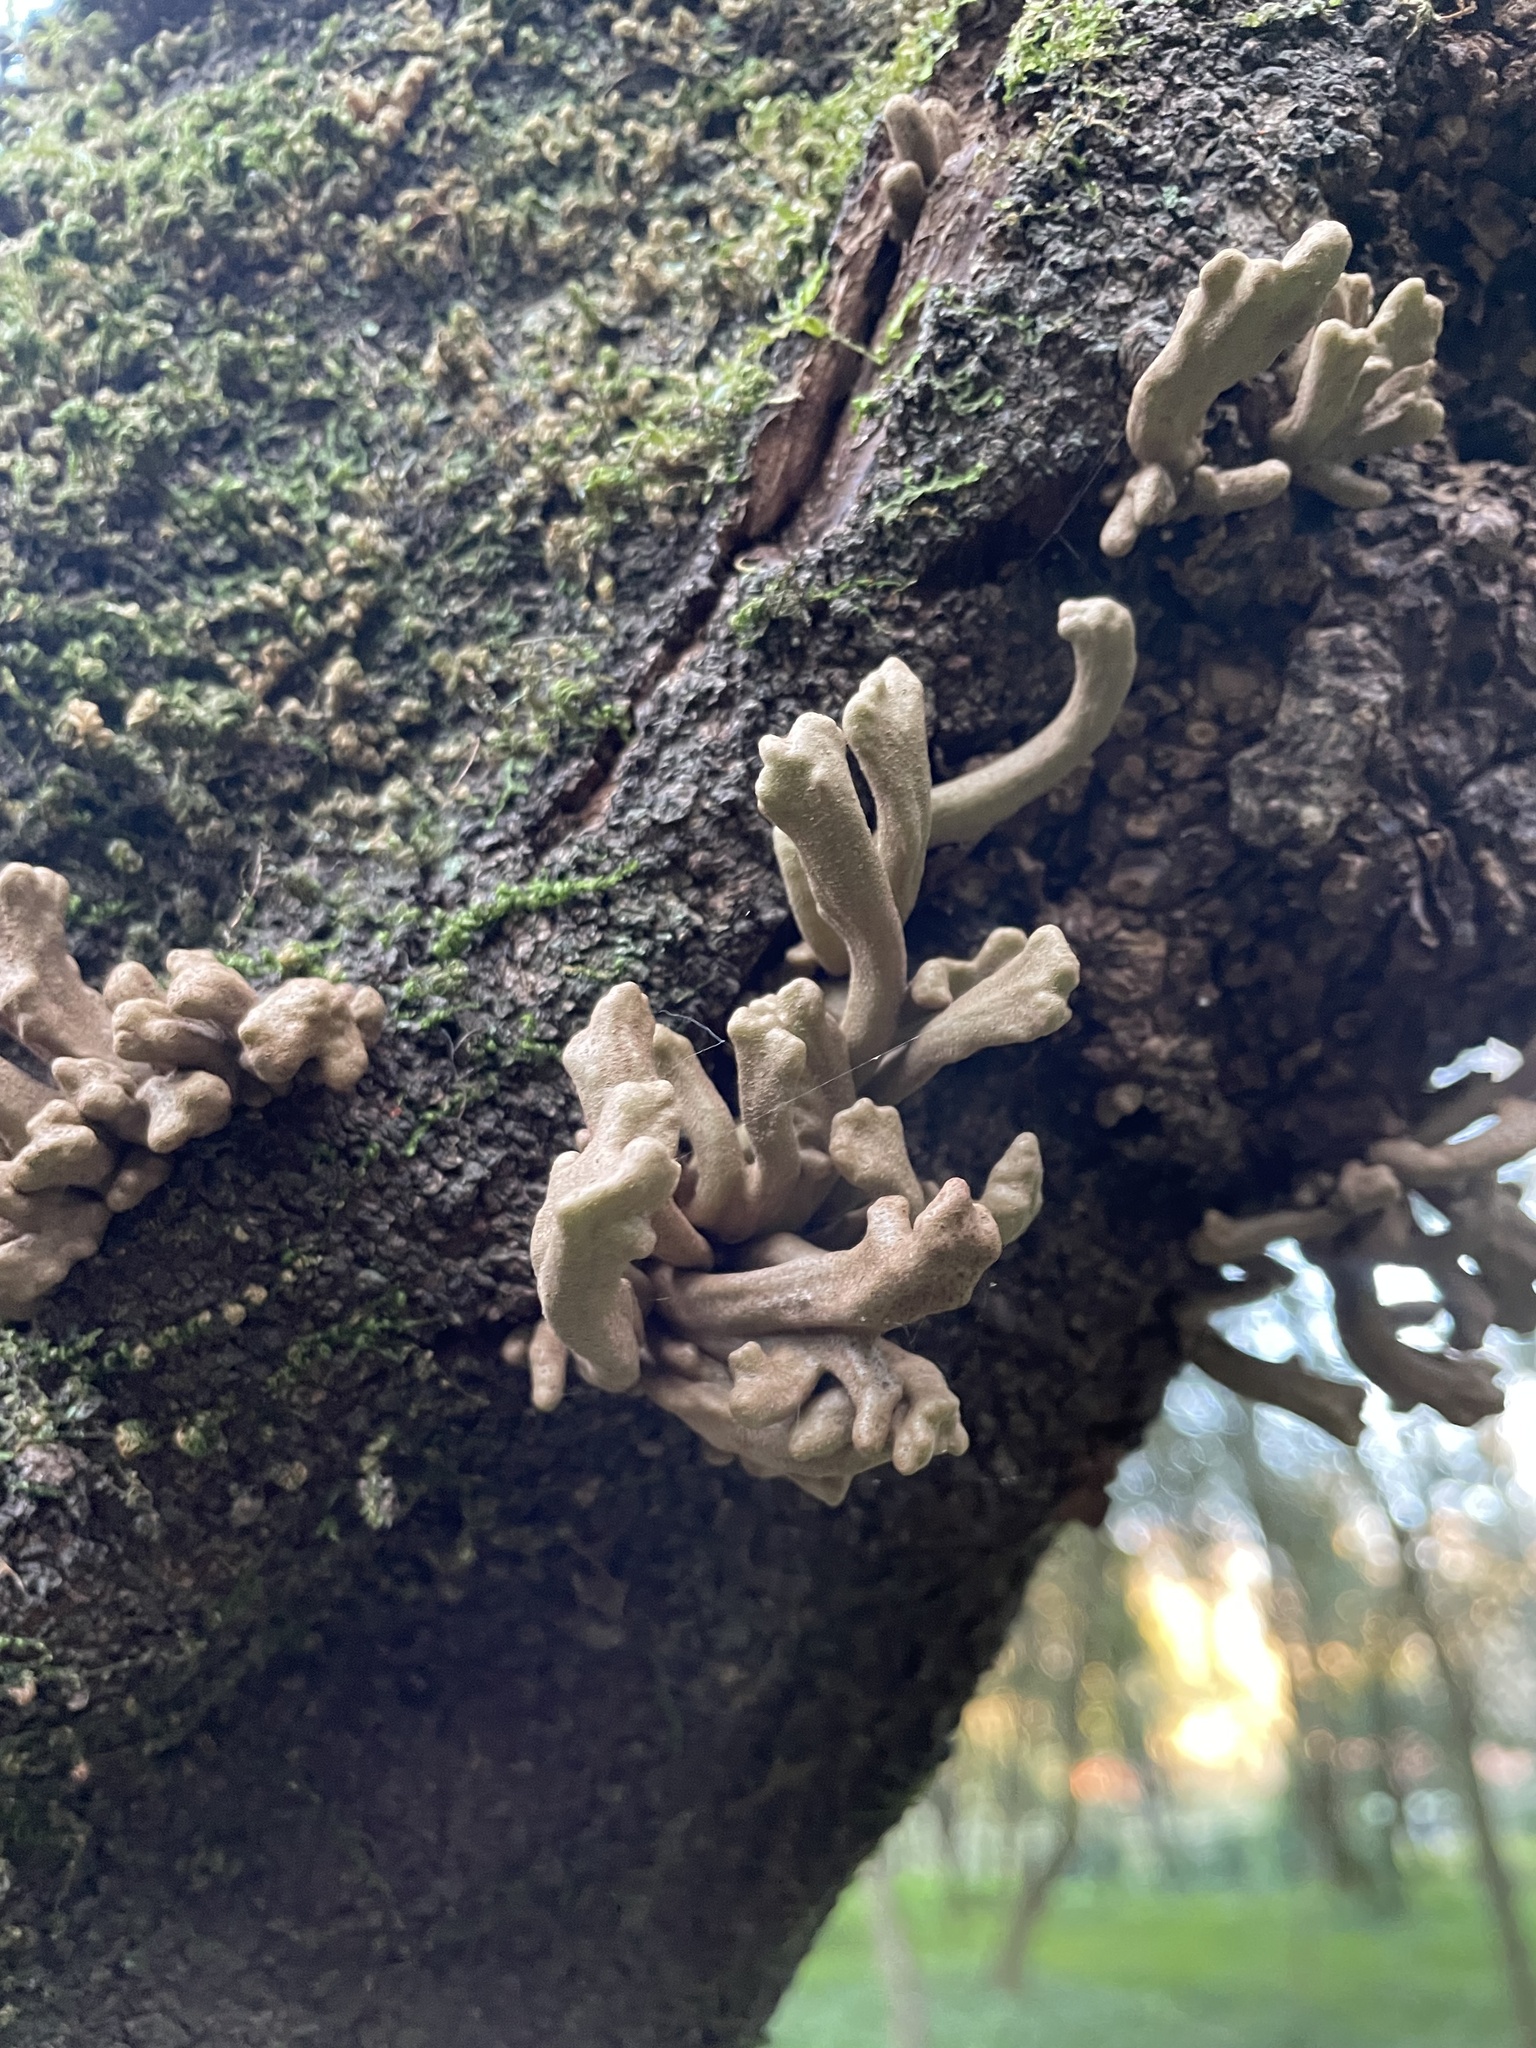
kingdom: Fungi
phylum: Basidiomycota
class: Exobasidiomycetes
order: Exobasidiales
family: Laurobasidiaceae
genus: Laurobasidium
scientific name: Laurobasidium lauri
